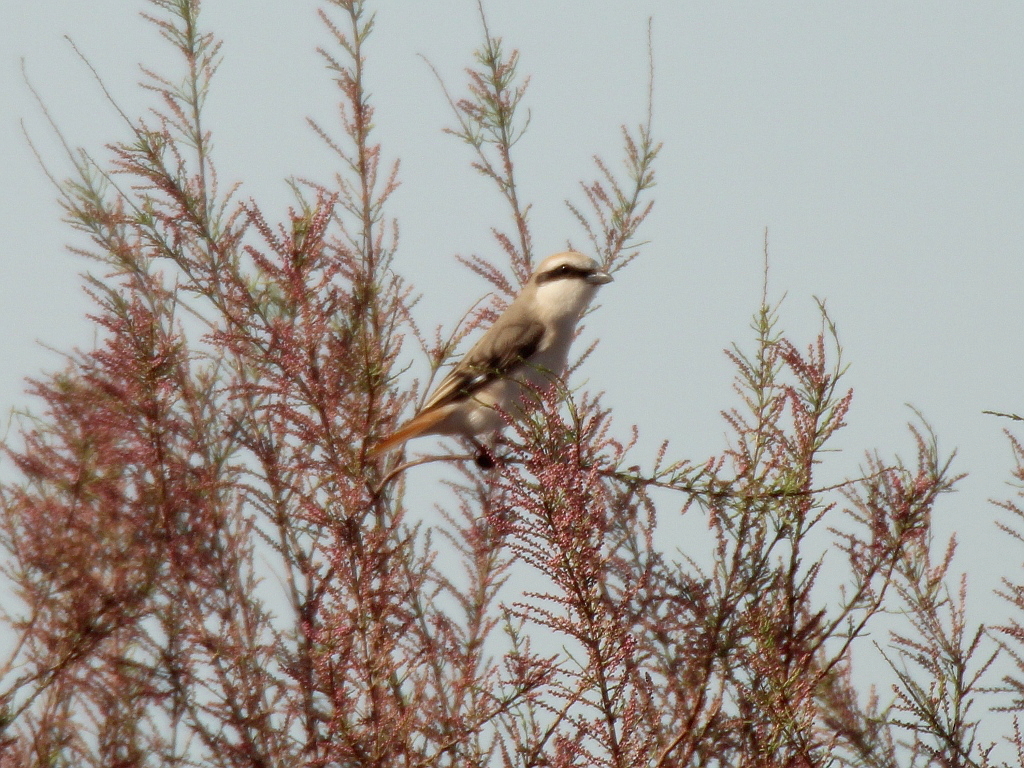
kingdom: Animalia
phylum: Chordata
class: Aves
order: Passeriformes
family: Laniidae
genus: Lanius
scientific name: Lanius phoenicuroides
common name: Red-tailed shrike
